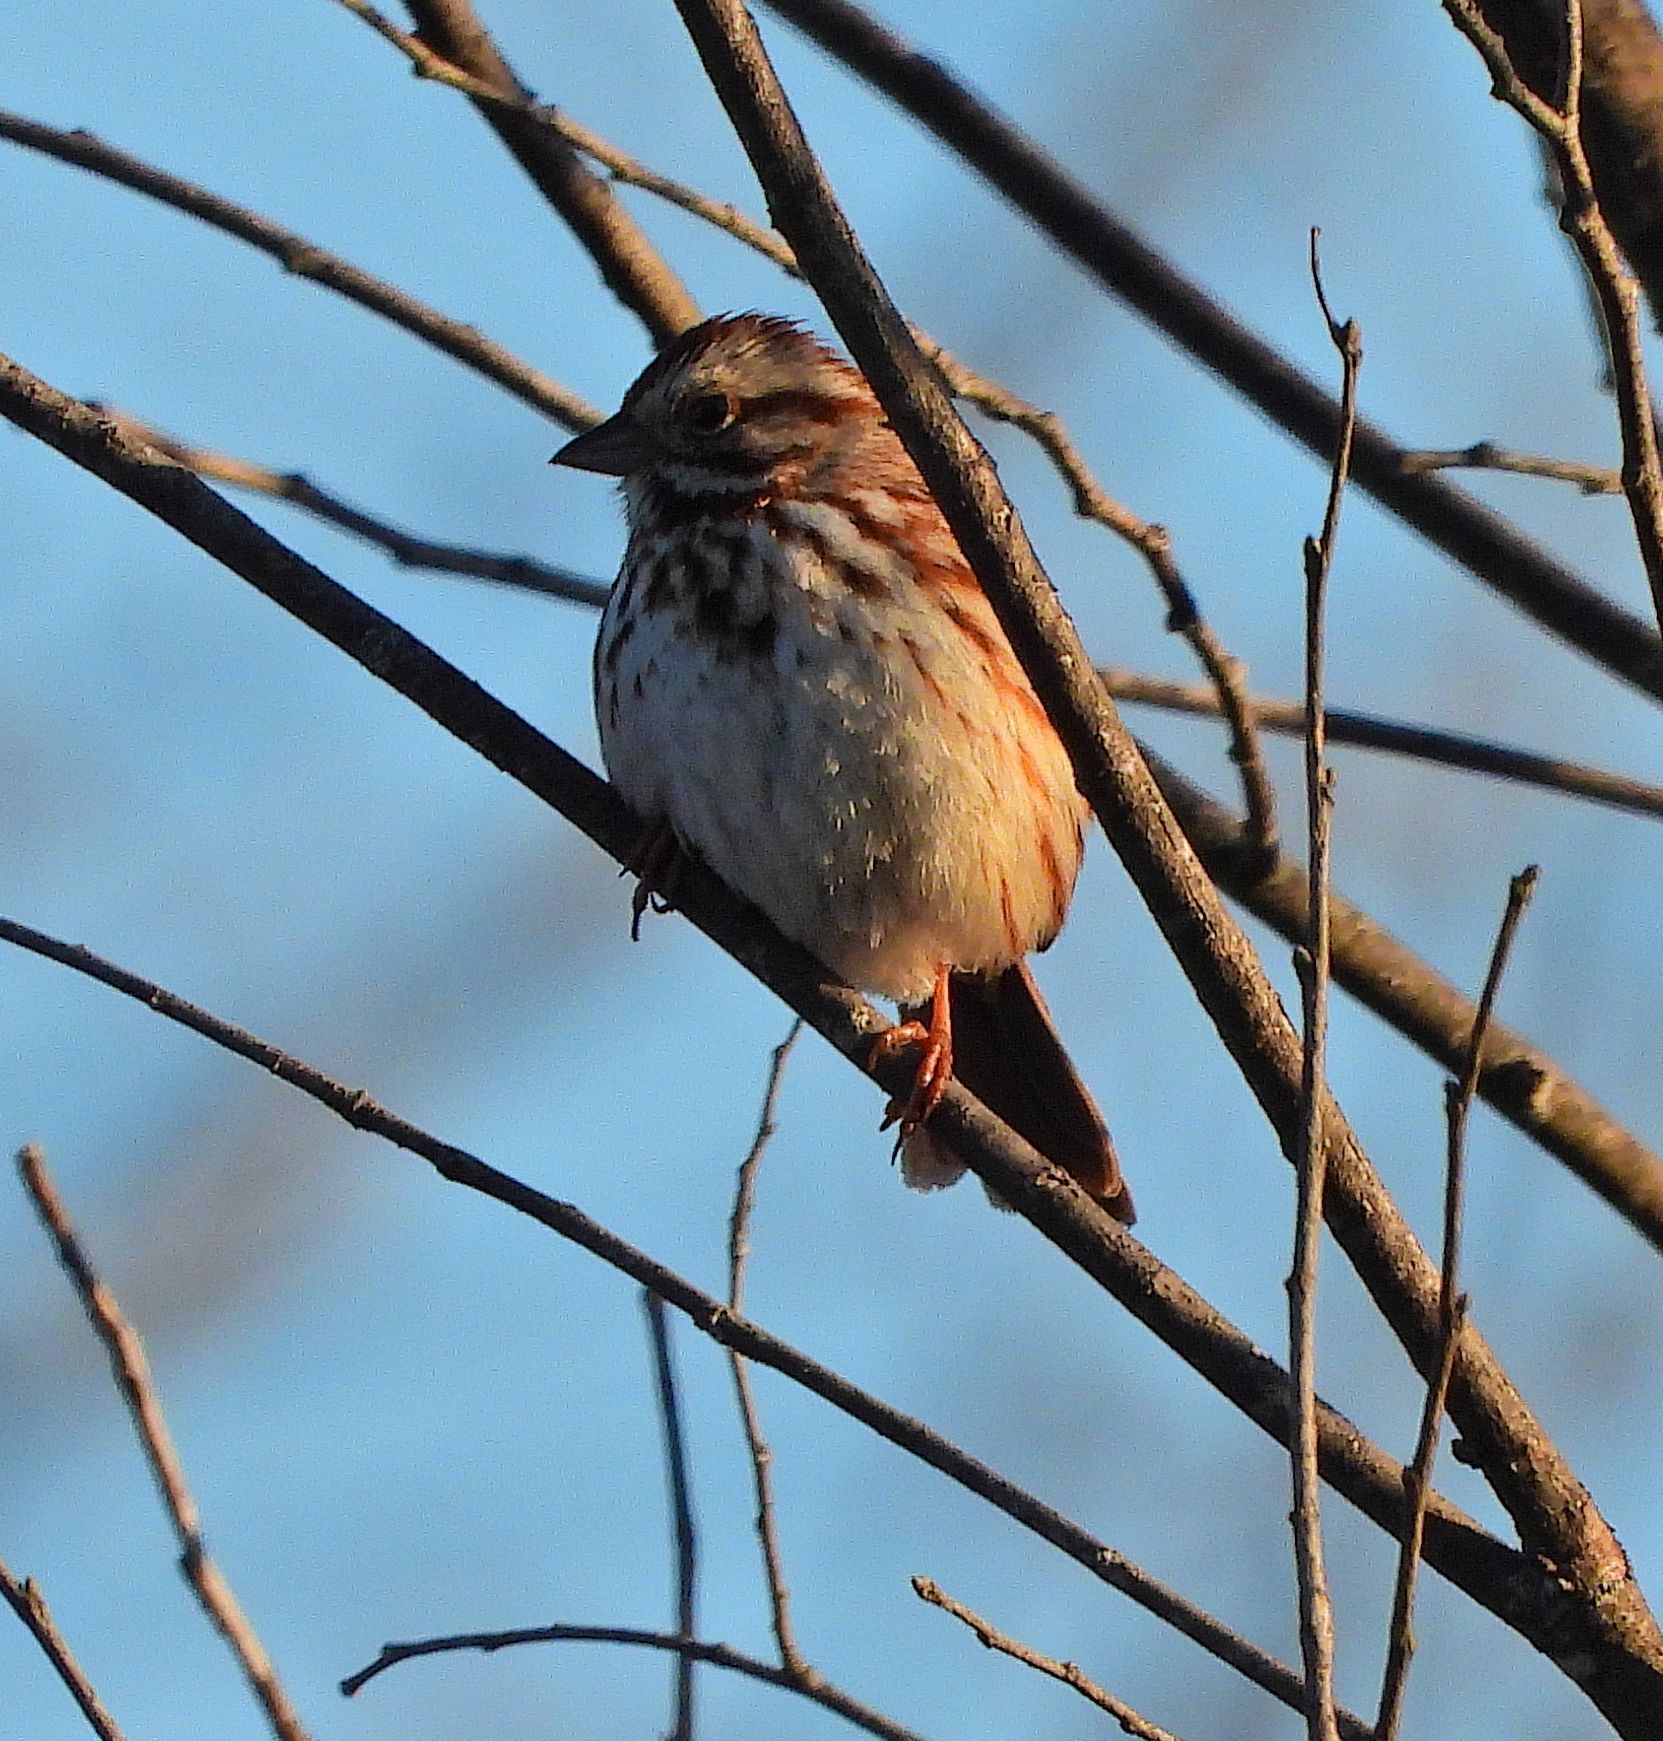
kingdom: Animalia
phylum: Chordata
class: Aves
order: Passeriformes
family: Passerellidae
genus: Melospiza
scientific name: Melospiza melodia
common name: Song sparrow
